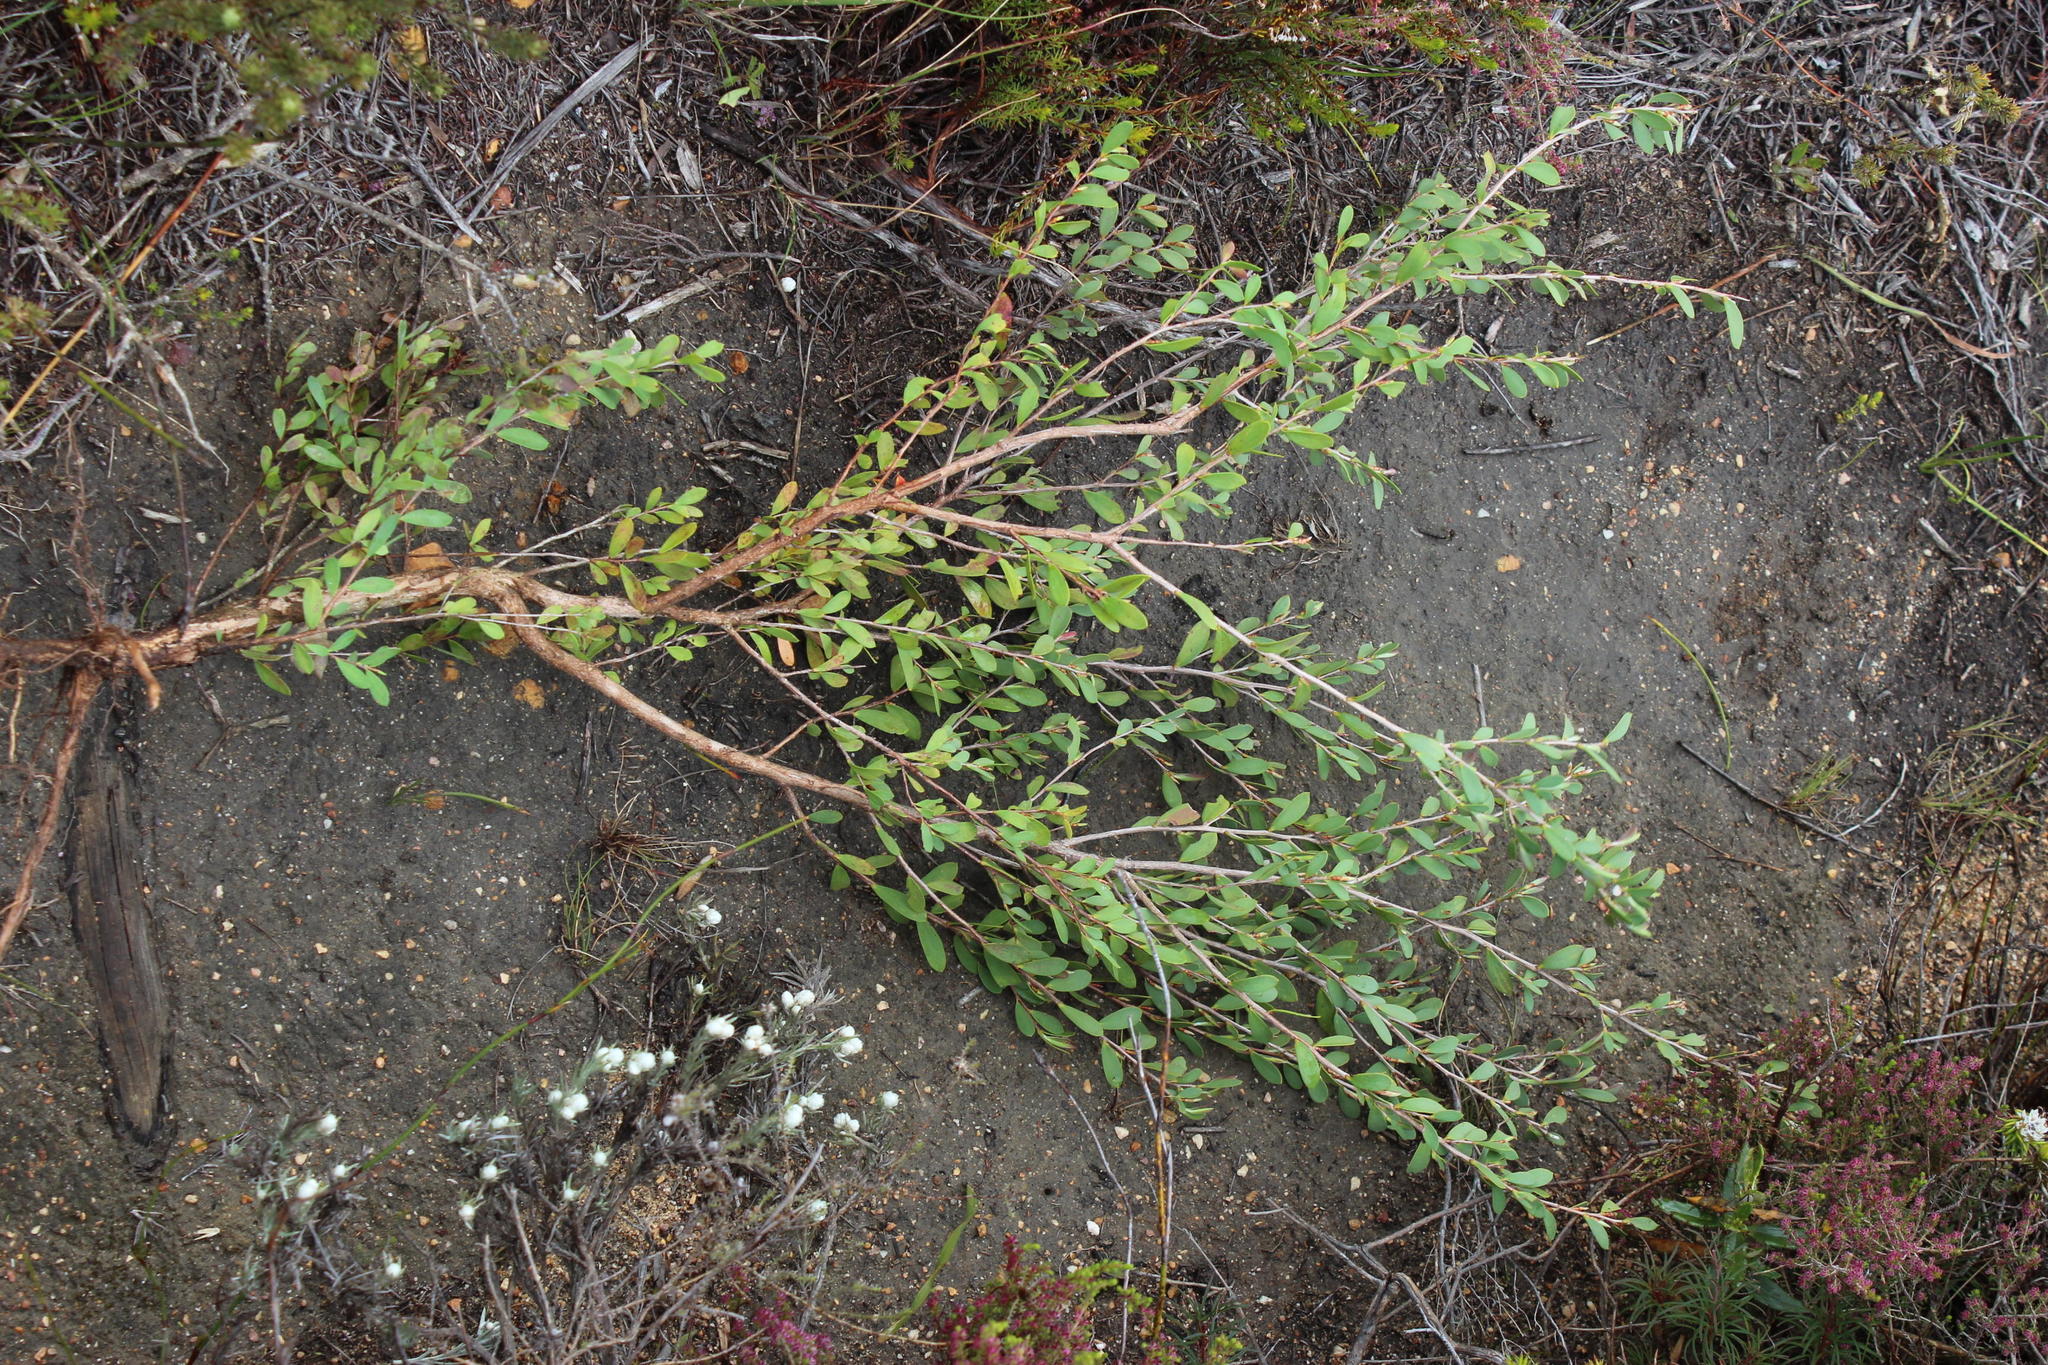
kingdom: Plantae
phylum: Tracheophyta
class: Magnoliopsida
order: Myrtales
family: Myrtaceae
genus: Leptospermum
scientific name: Leptospermum laevigatum
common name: Australian teatree
